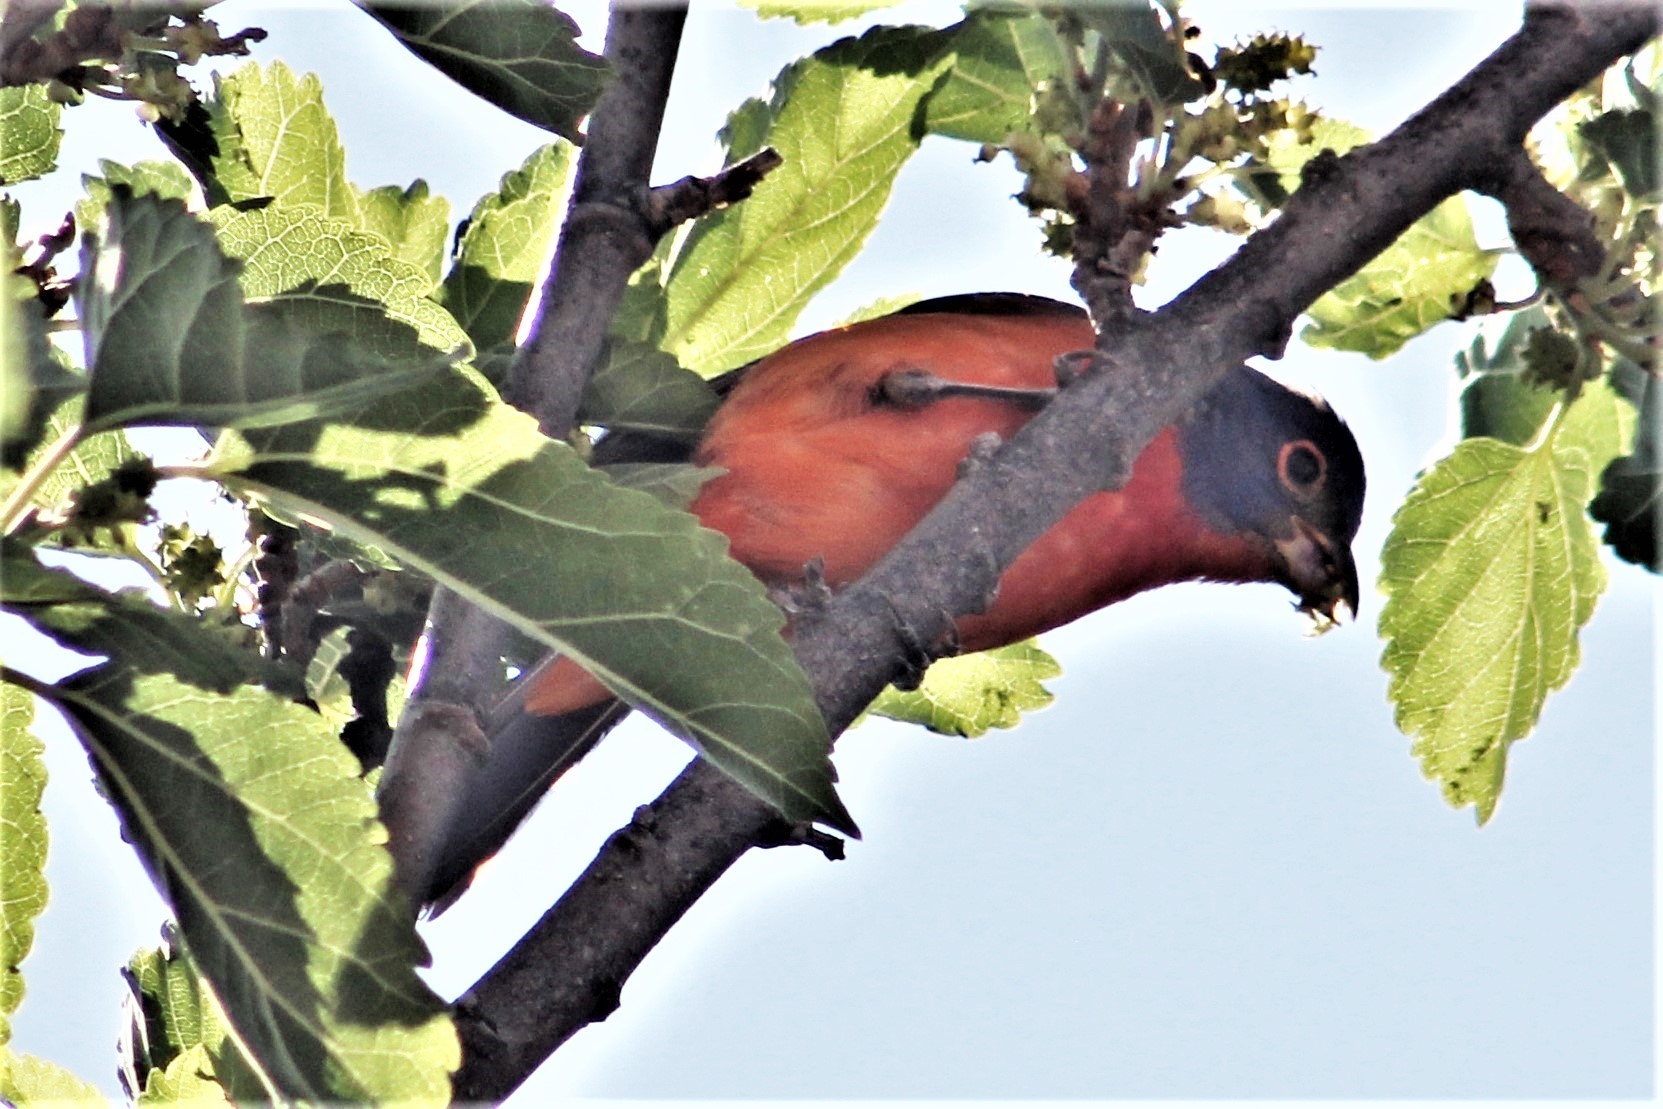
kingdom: Animalia
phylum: Chordata
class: Aves
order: Passeriformes
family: Cardinalidae
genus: Passerina
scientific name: Passerina ciris
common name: Painted bunting
